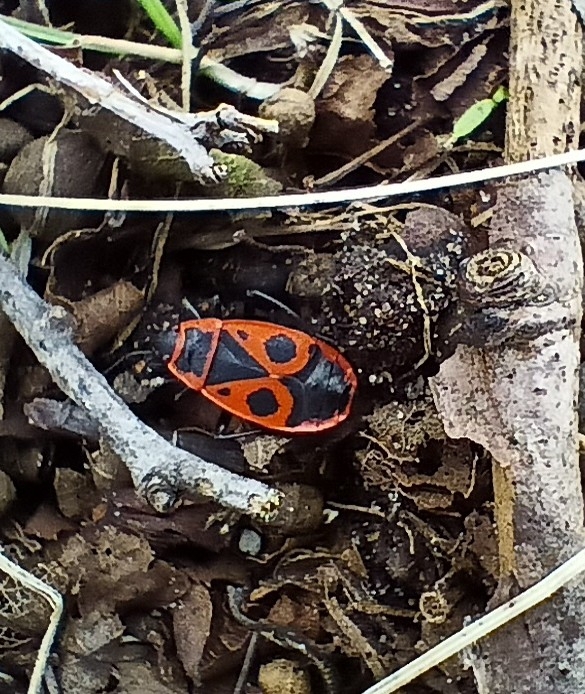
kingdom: Animalia
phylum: Arthropoda
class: Insecta
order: Hemiptera
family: Pyrrhocoridae
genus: Pyrrhocoris
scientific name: Pyrrhocoris apterus
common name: Firebug
